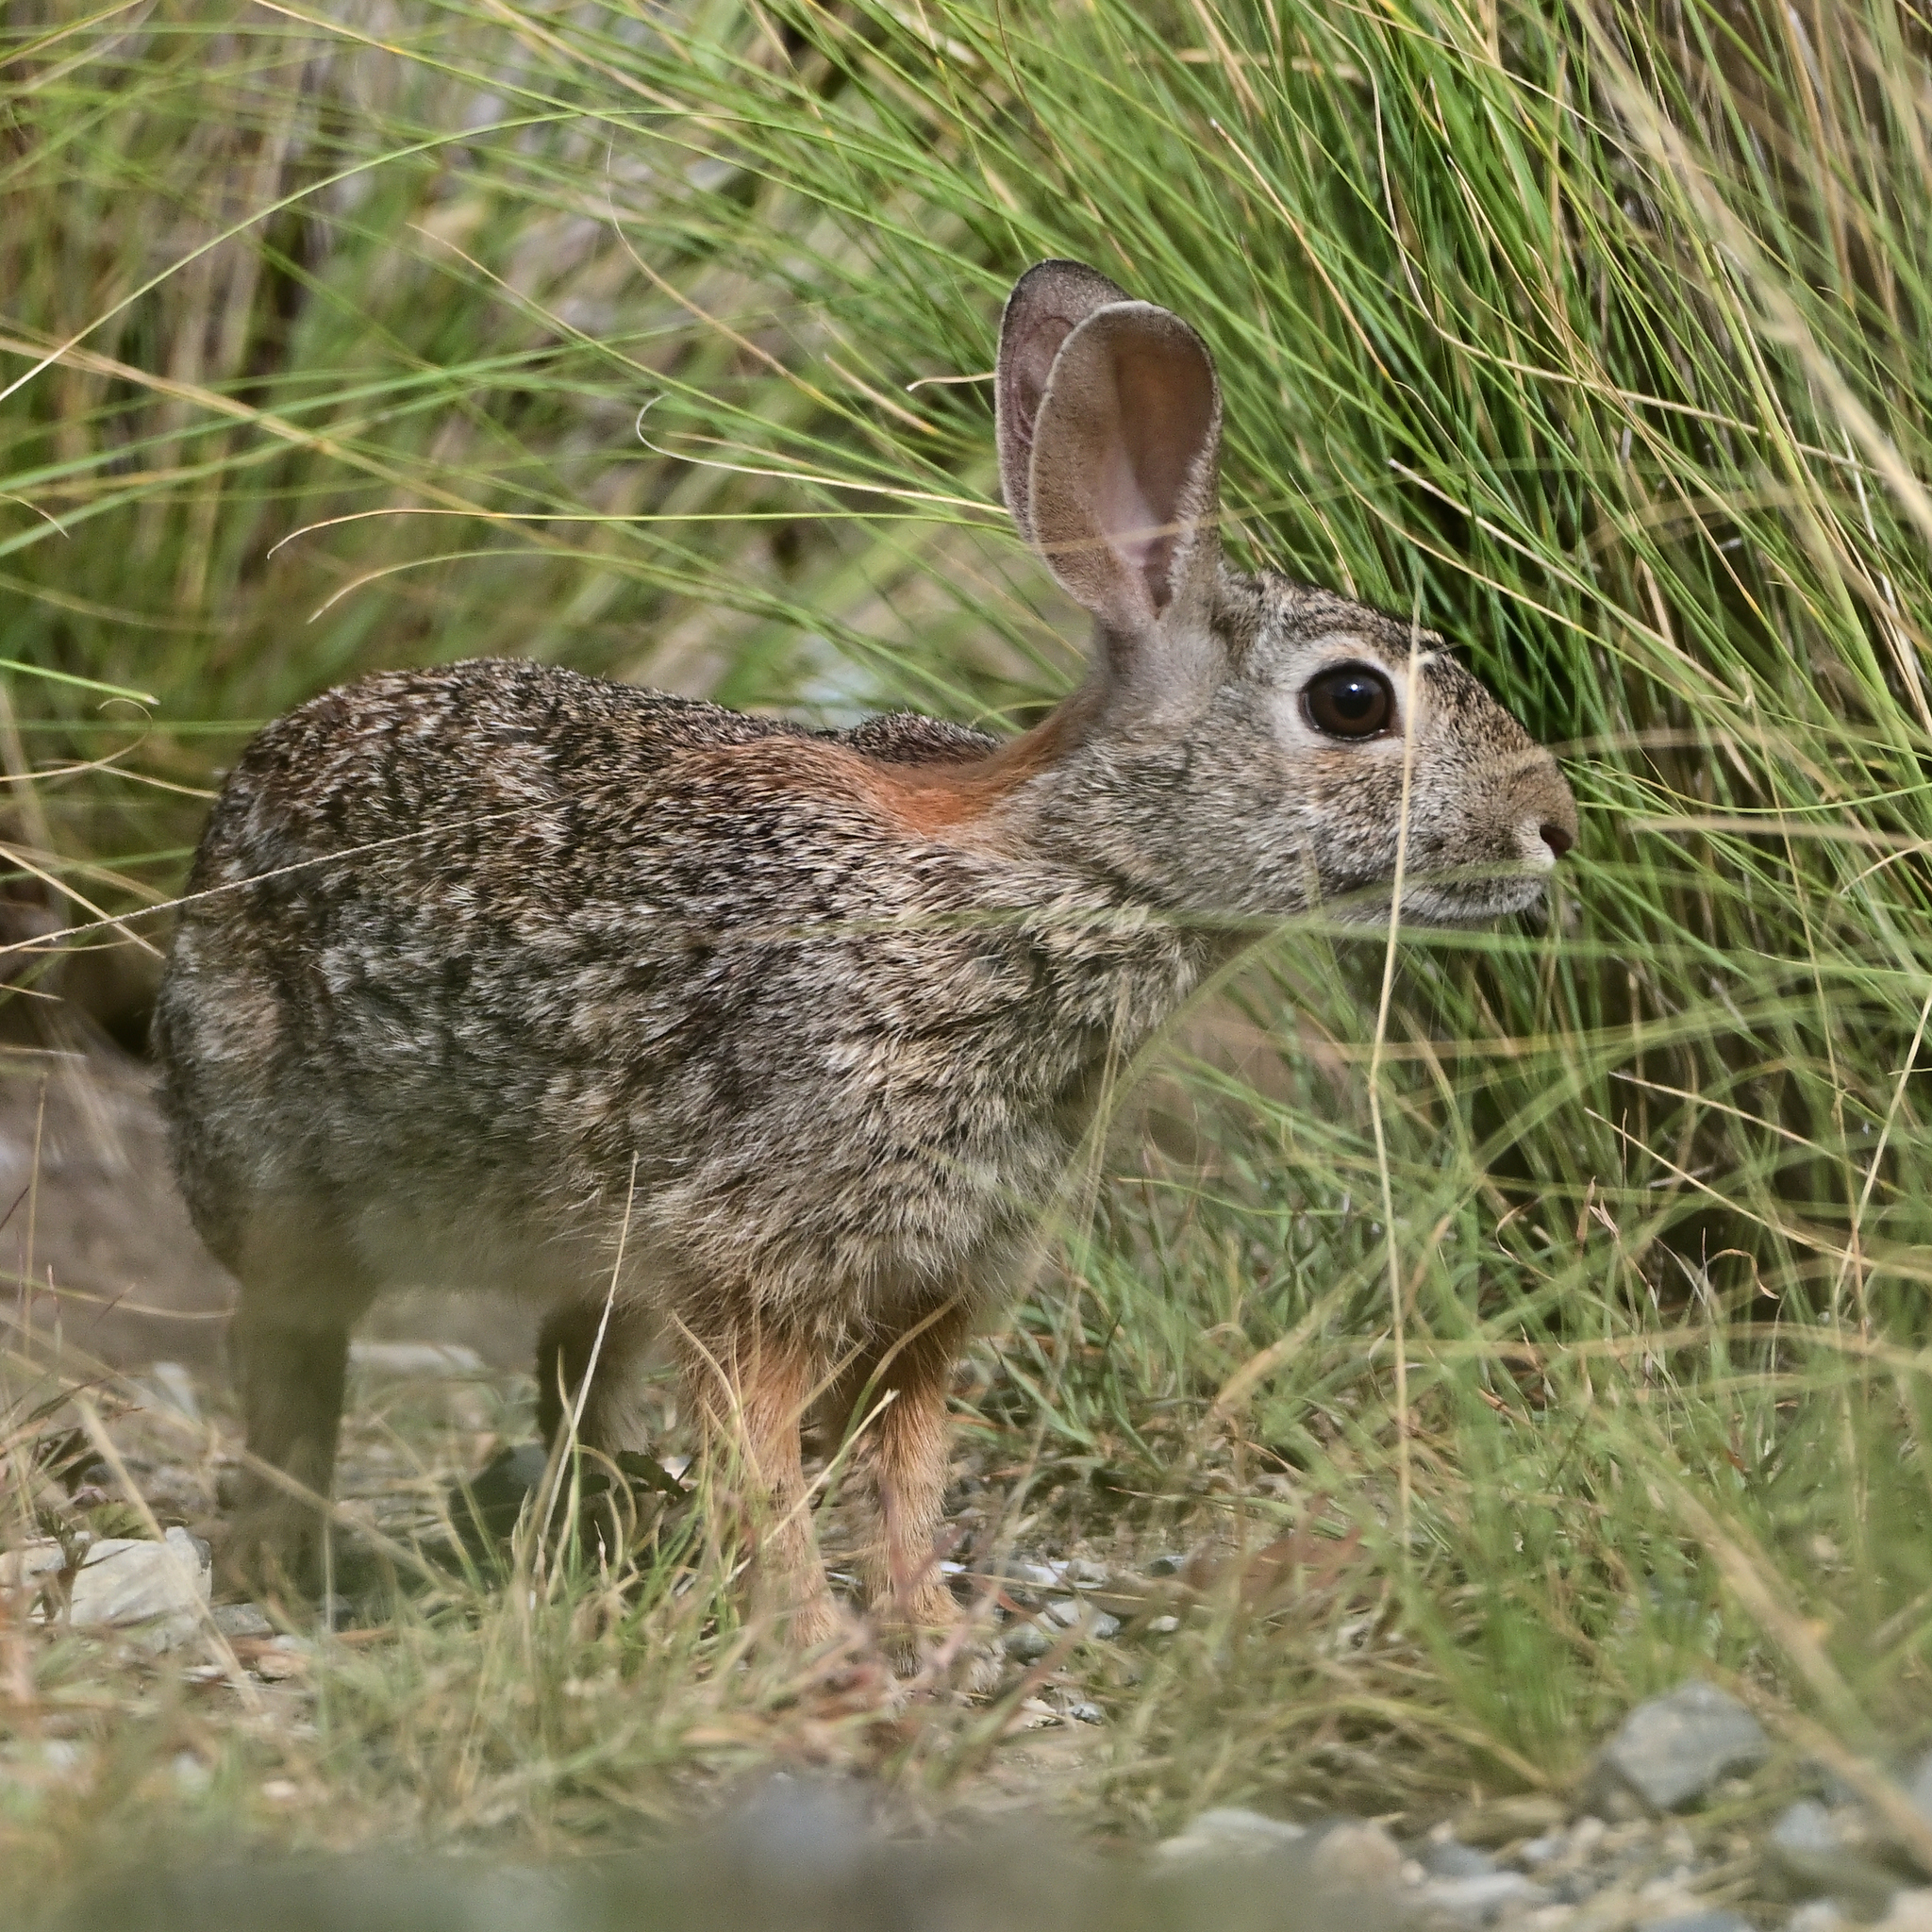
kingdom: Animalia
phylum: Chordata
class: Mammalia
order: Lagomorpha
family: Leporidae
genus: Sylvilagus
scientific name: Sylvilagus floridanus
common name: Eastern cottontail
